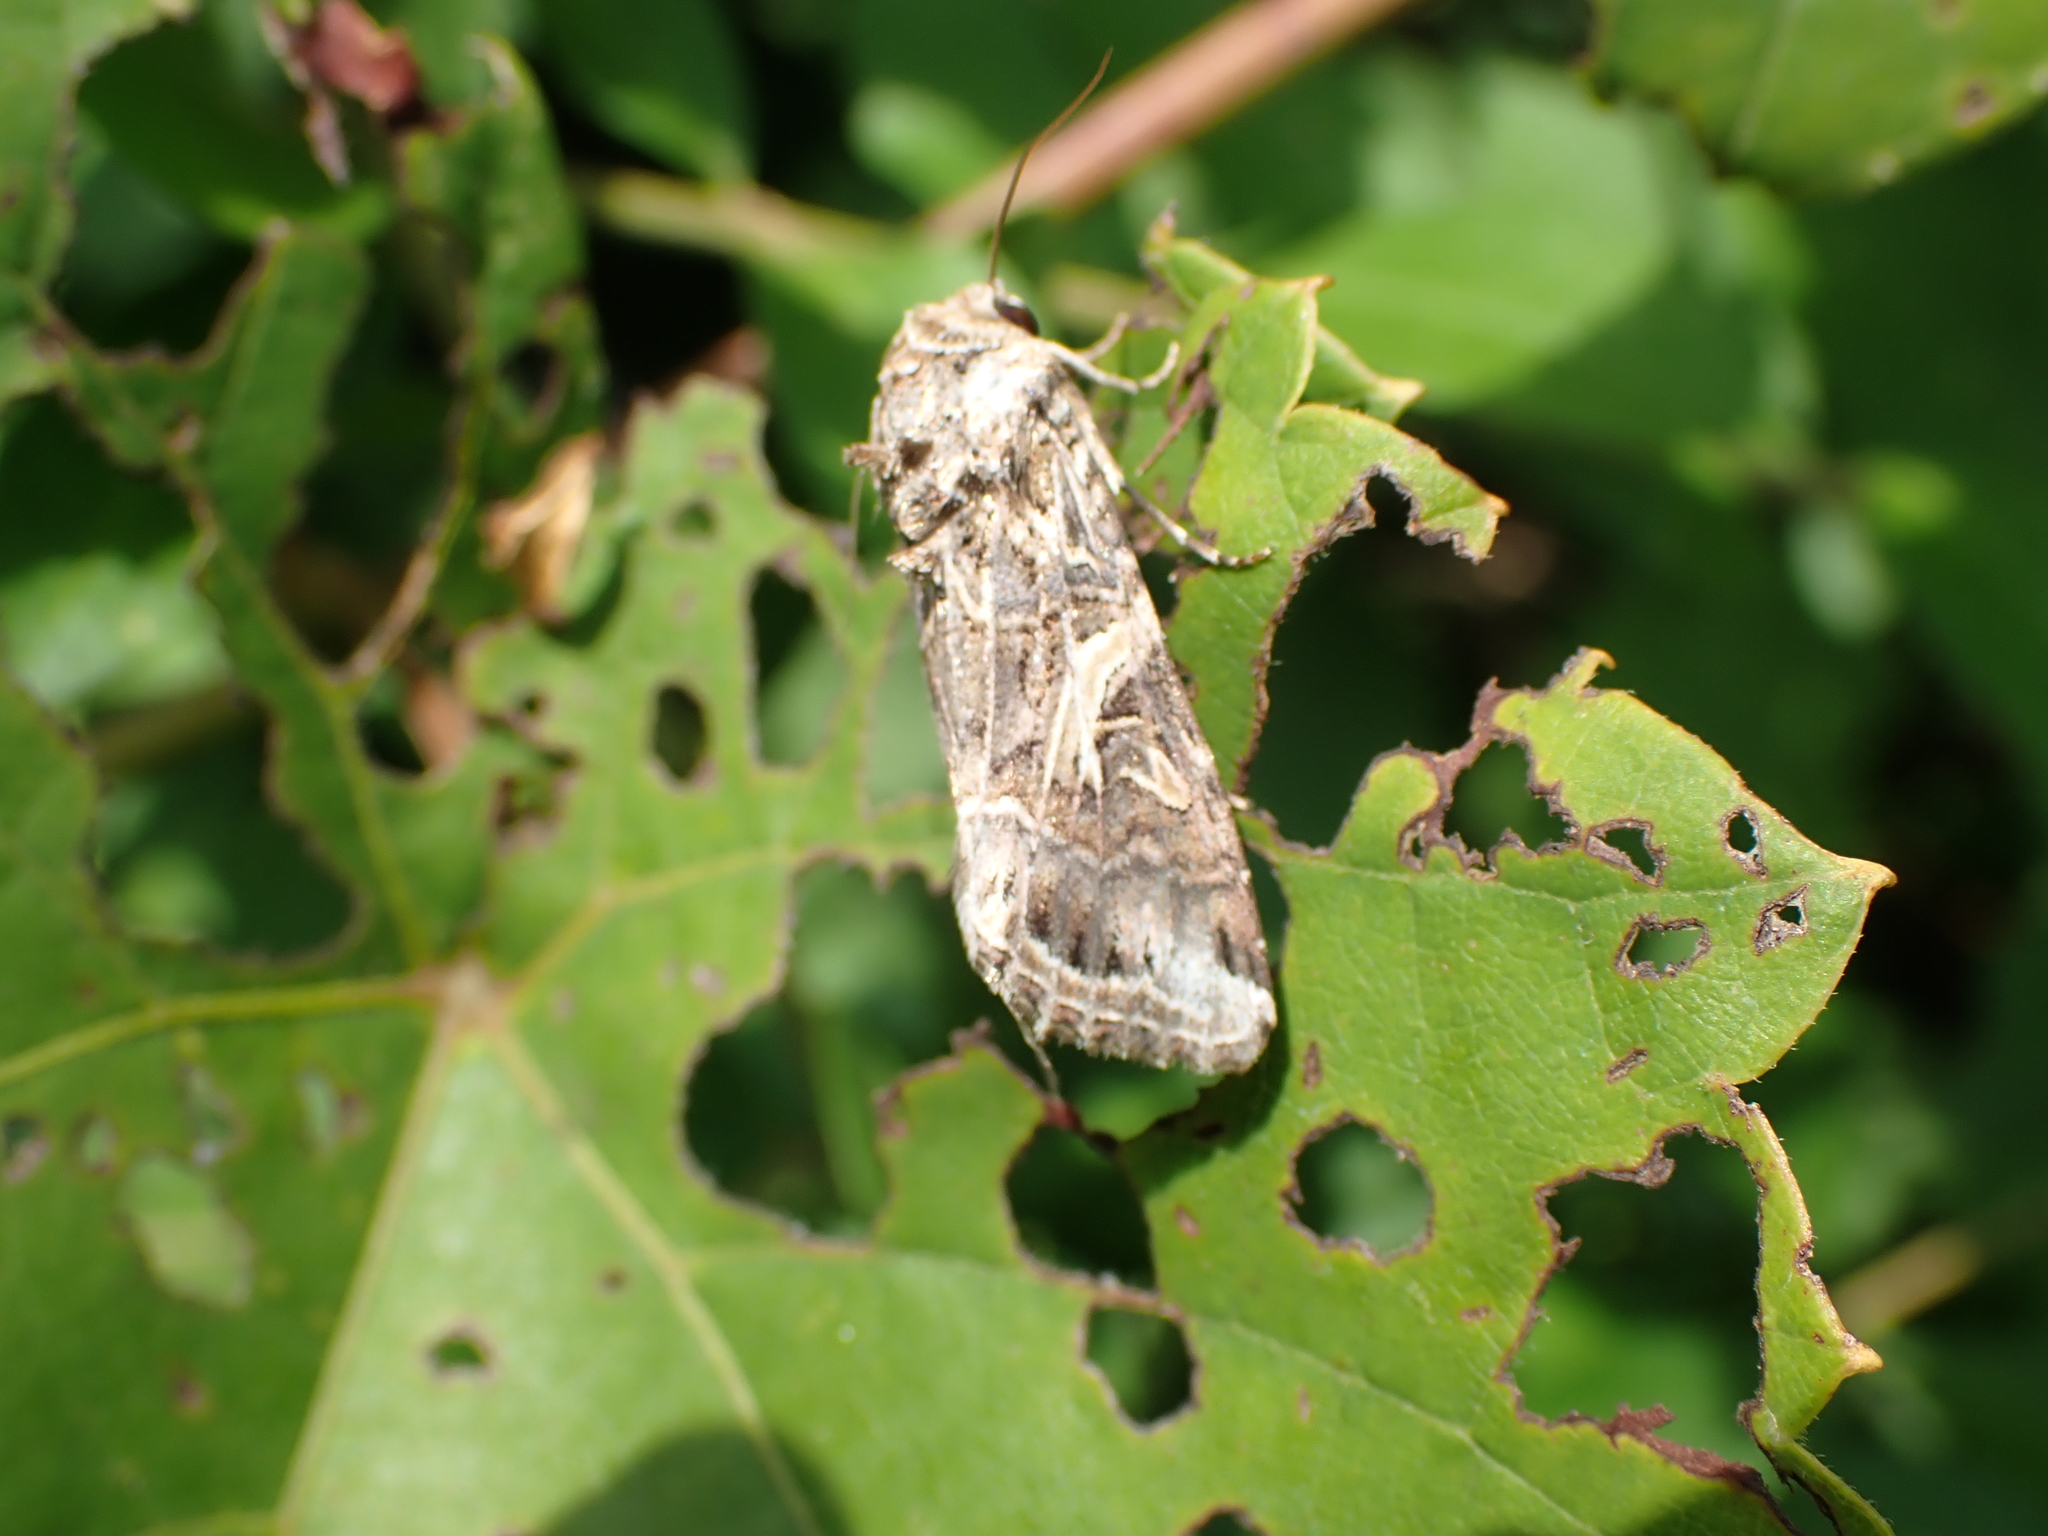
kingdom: Animalia
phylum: Arthropoda
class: Insecta
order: Lepidoptera
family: Noctuidae
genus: Spodoptera
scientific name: Spodoptera ornithogalli
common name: Yellow-striped armyworm
